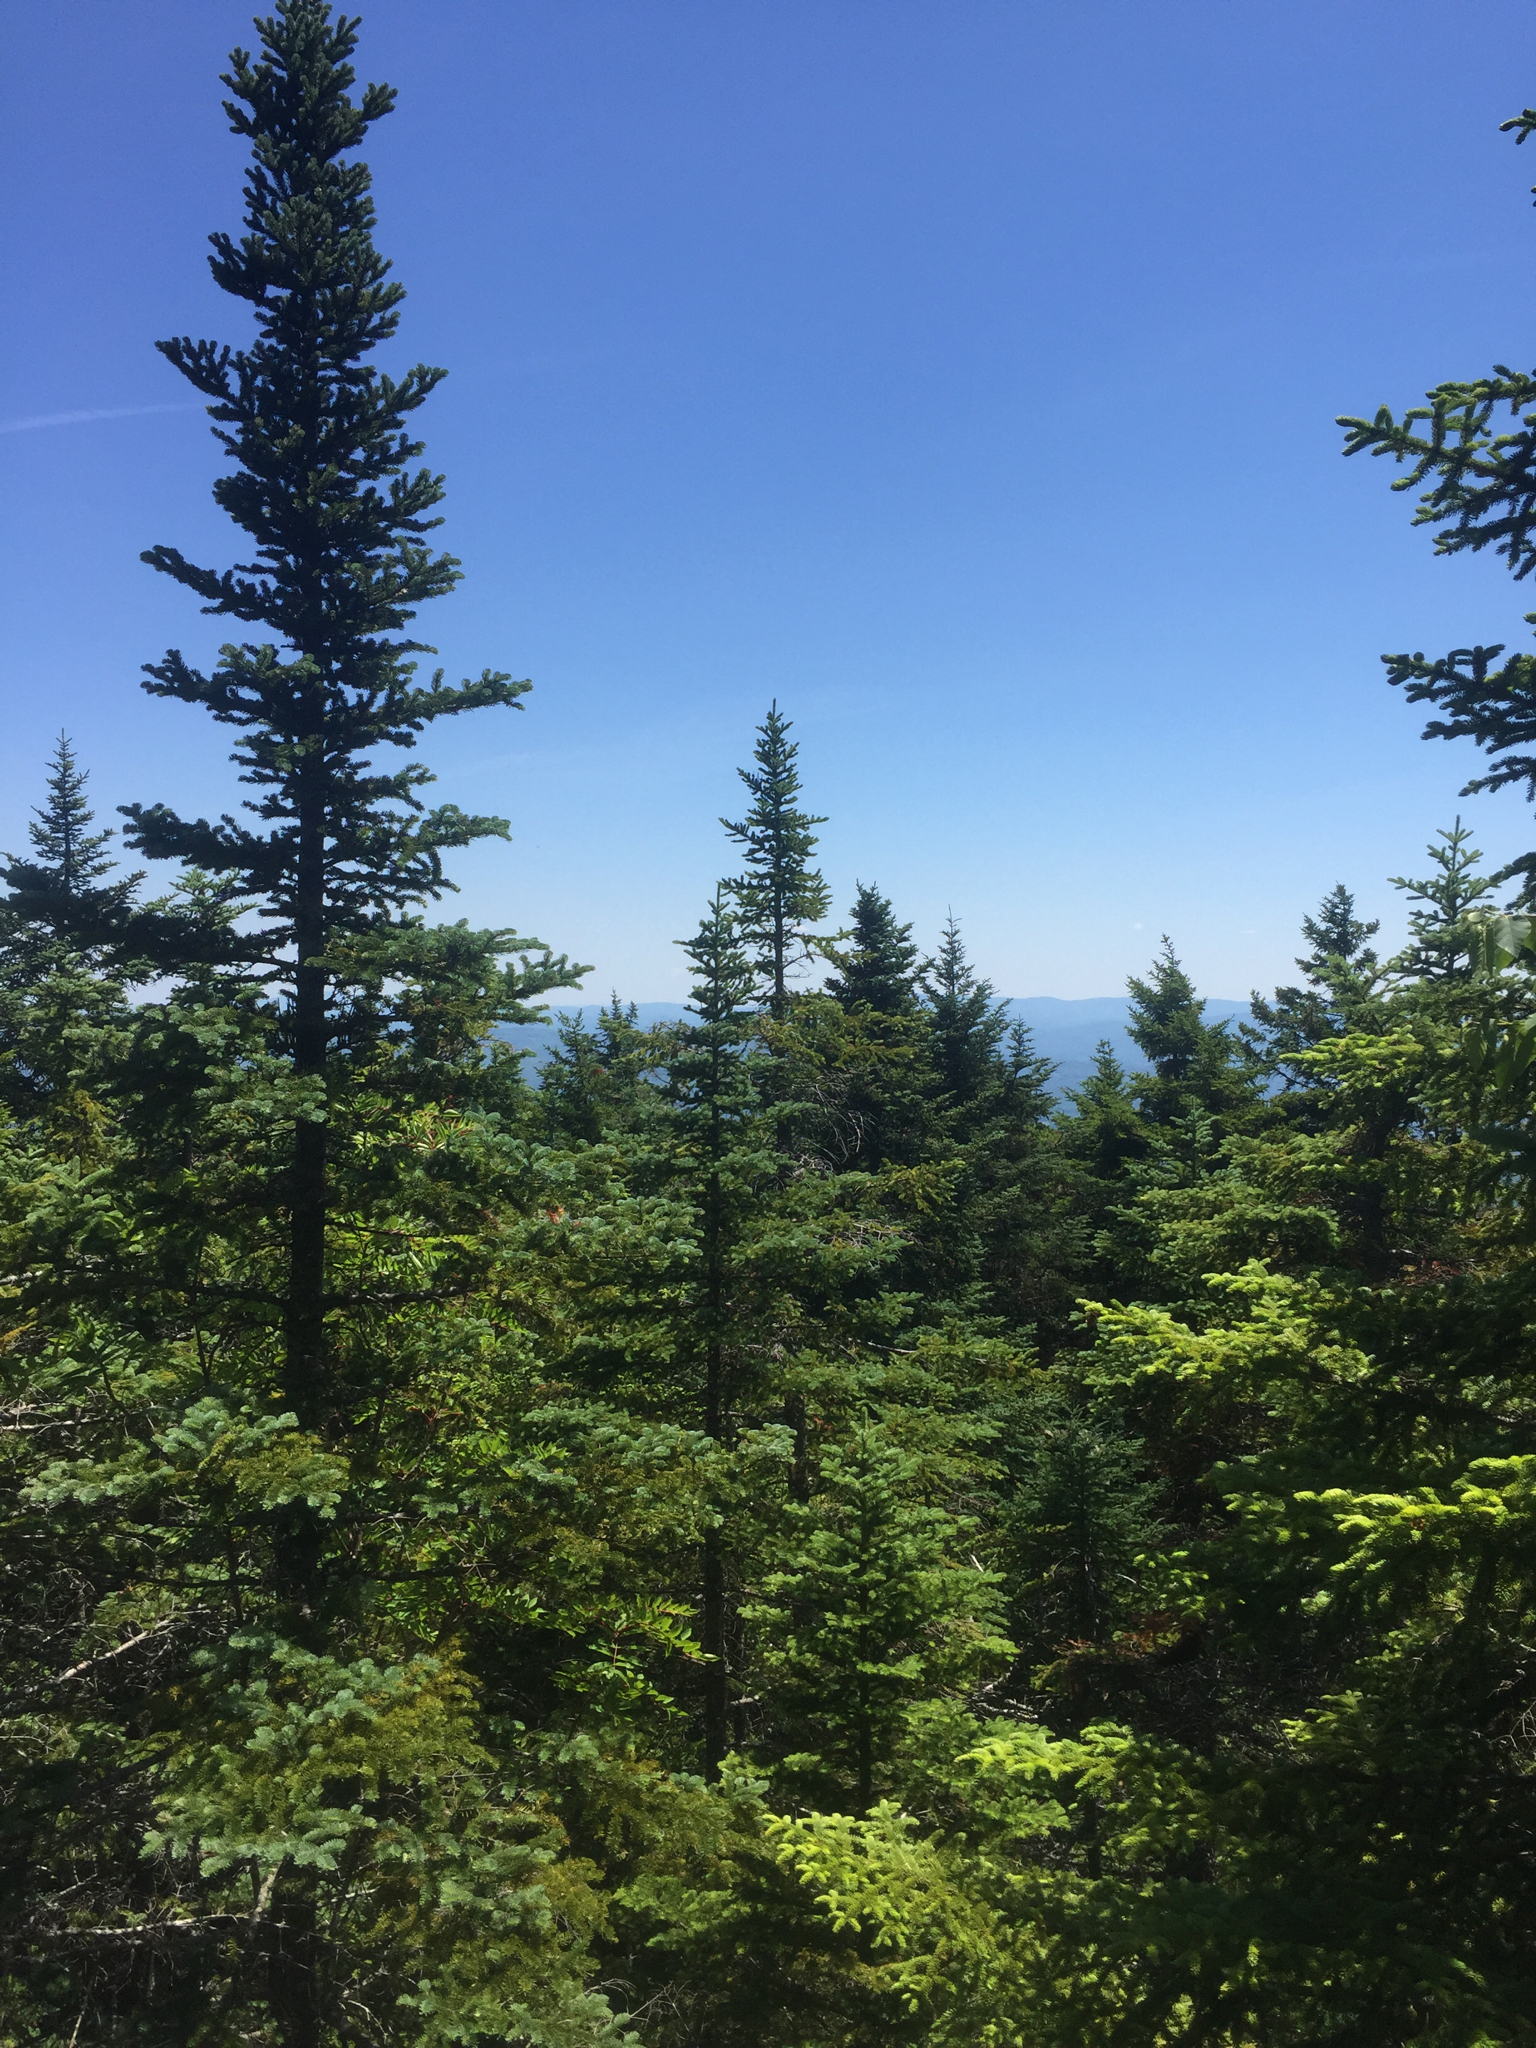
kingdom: Plantae
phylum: Tracheophyta
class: Pinopsida
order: Pinales
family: Pinaceae
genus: Abies
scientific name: Abies balsamea
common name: Balsam fir
